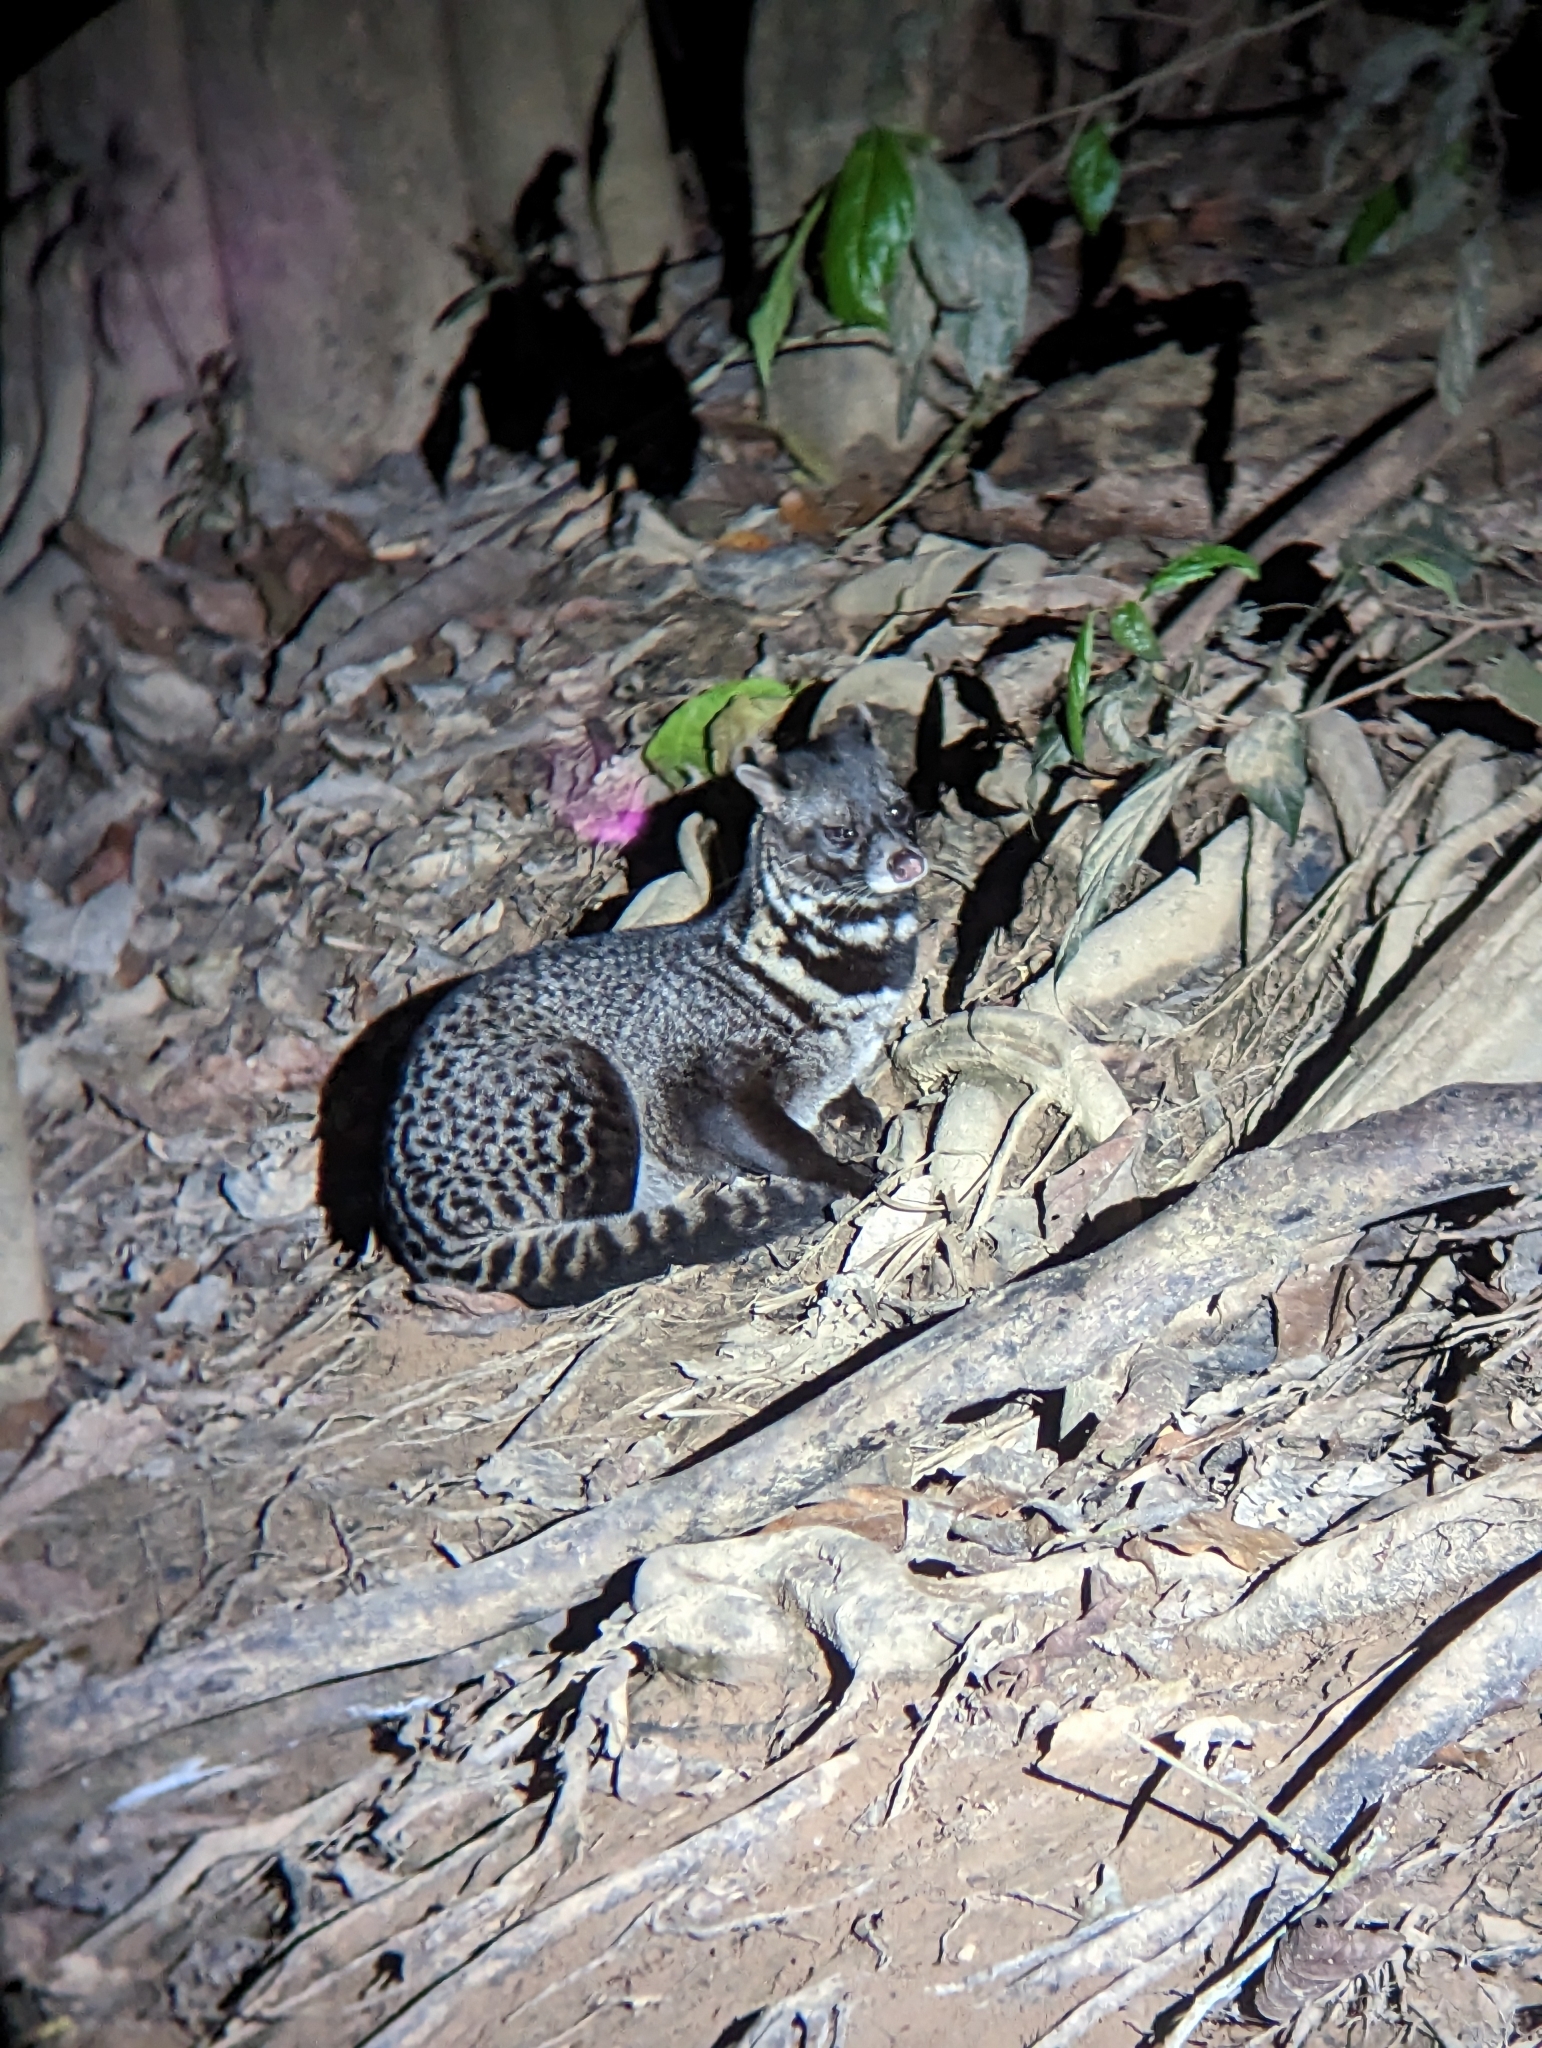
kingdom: Animalia
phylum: Chordata
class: Mammalia
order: Carnivora
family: Viverridae
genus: Viverra
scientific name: Viverra tangalunga
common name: Malayan civet
